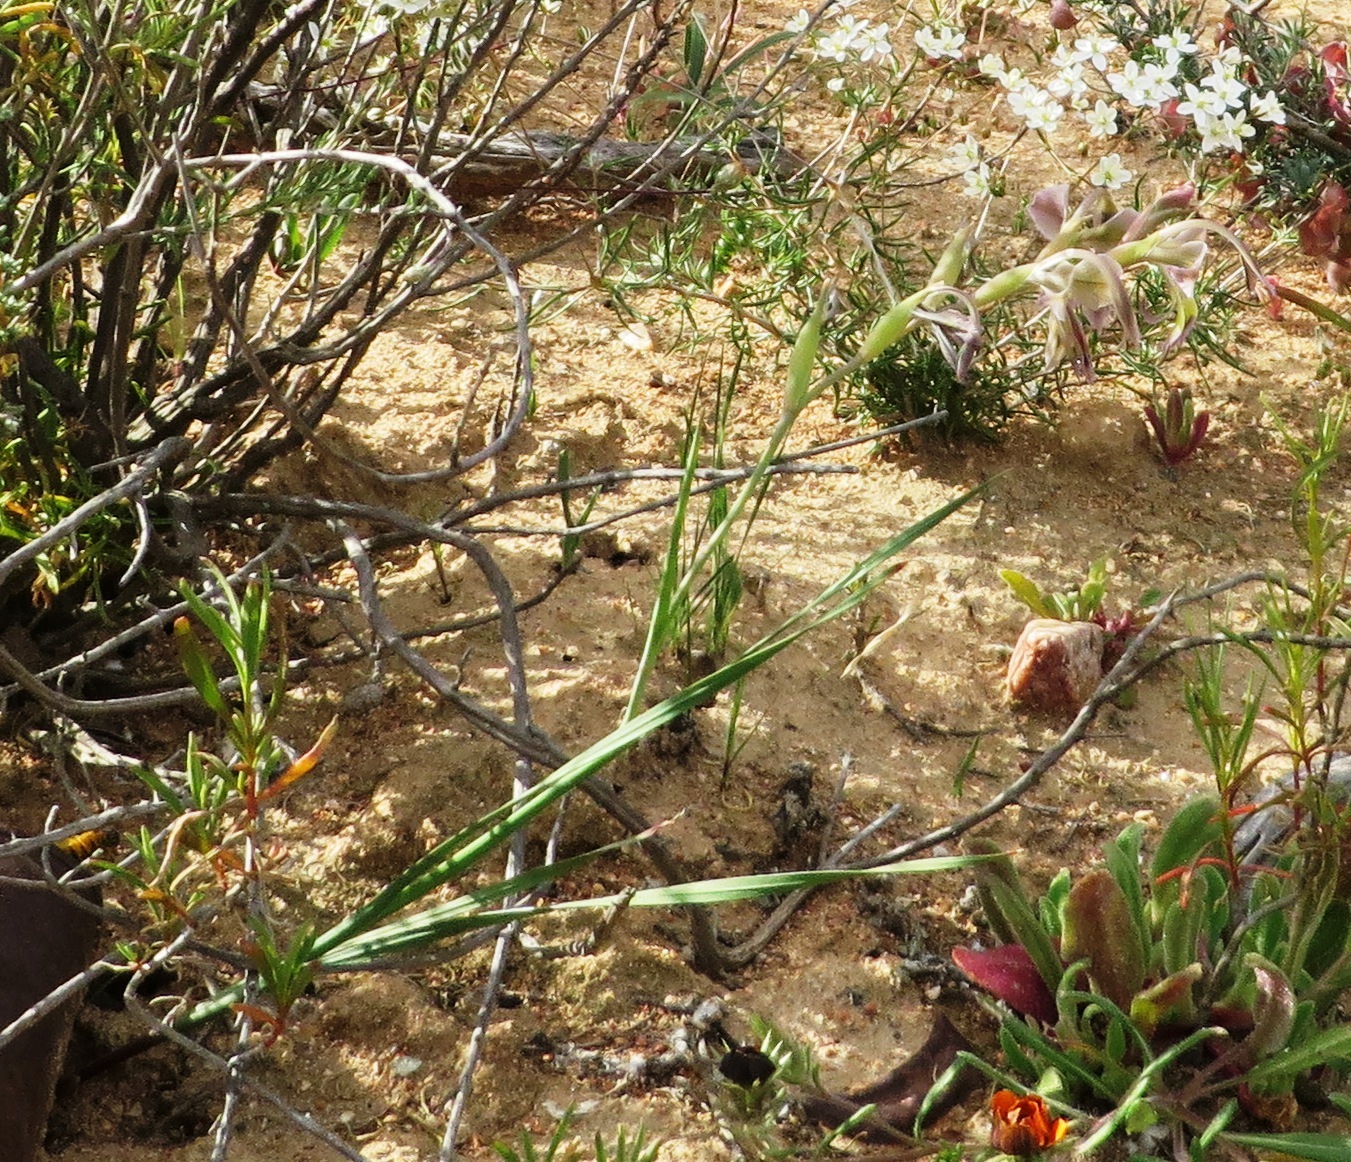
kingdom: Plantae
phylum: Tracheophyta
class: Liliopsida
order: Asparagales
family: Iridaceae
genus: Gladiolus
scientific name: Gladiolus orchidiflorus
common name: Gray kalkoentjie
